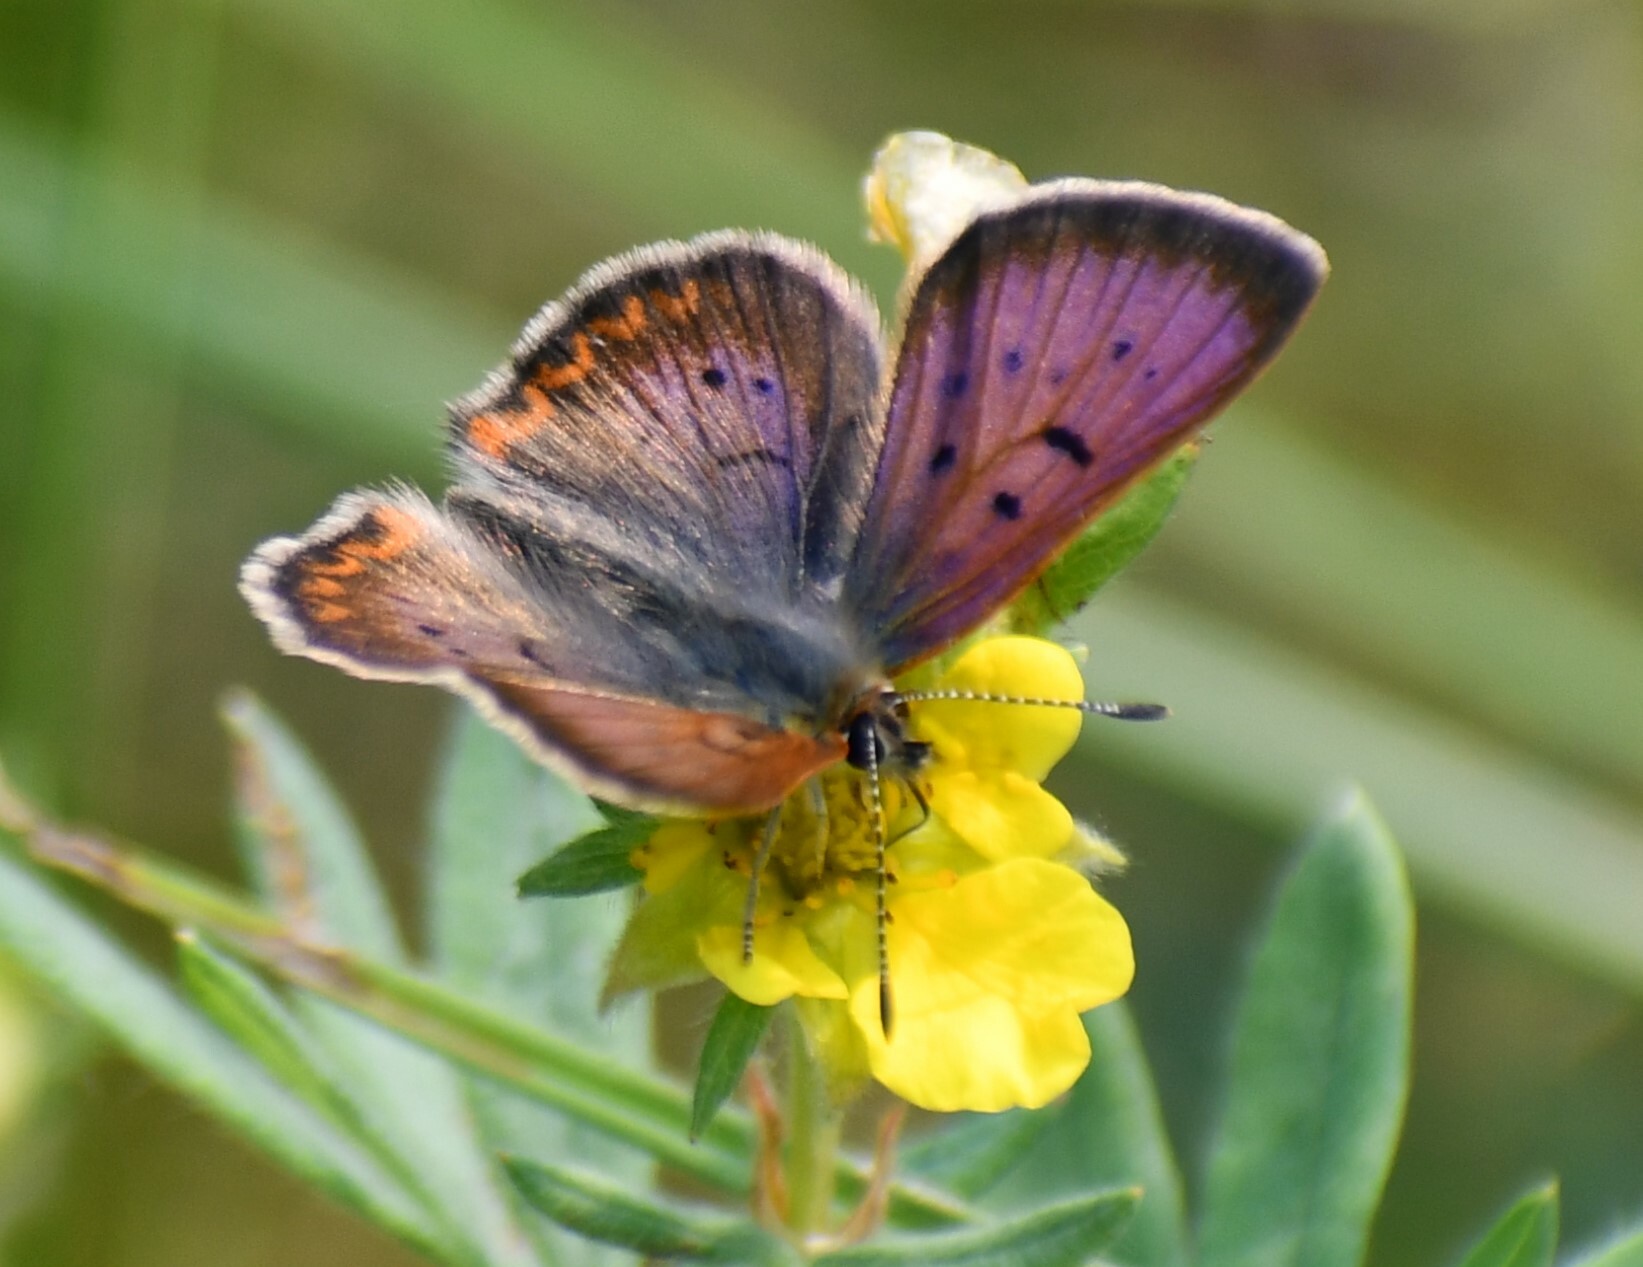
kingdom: Animalia
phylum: Arthropoda
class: Insecta
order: Lepidoptera
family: Lycaenidae
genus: Tharsalea
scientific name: Tharsalea dorcas
